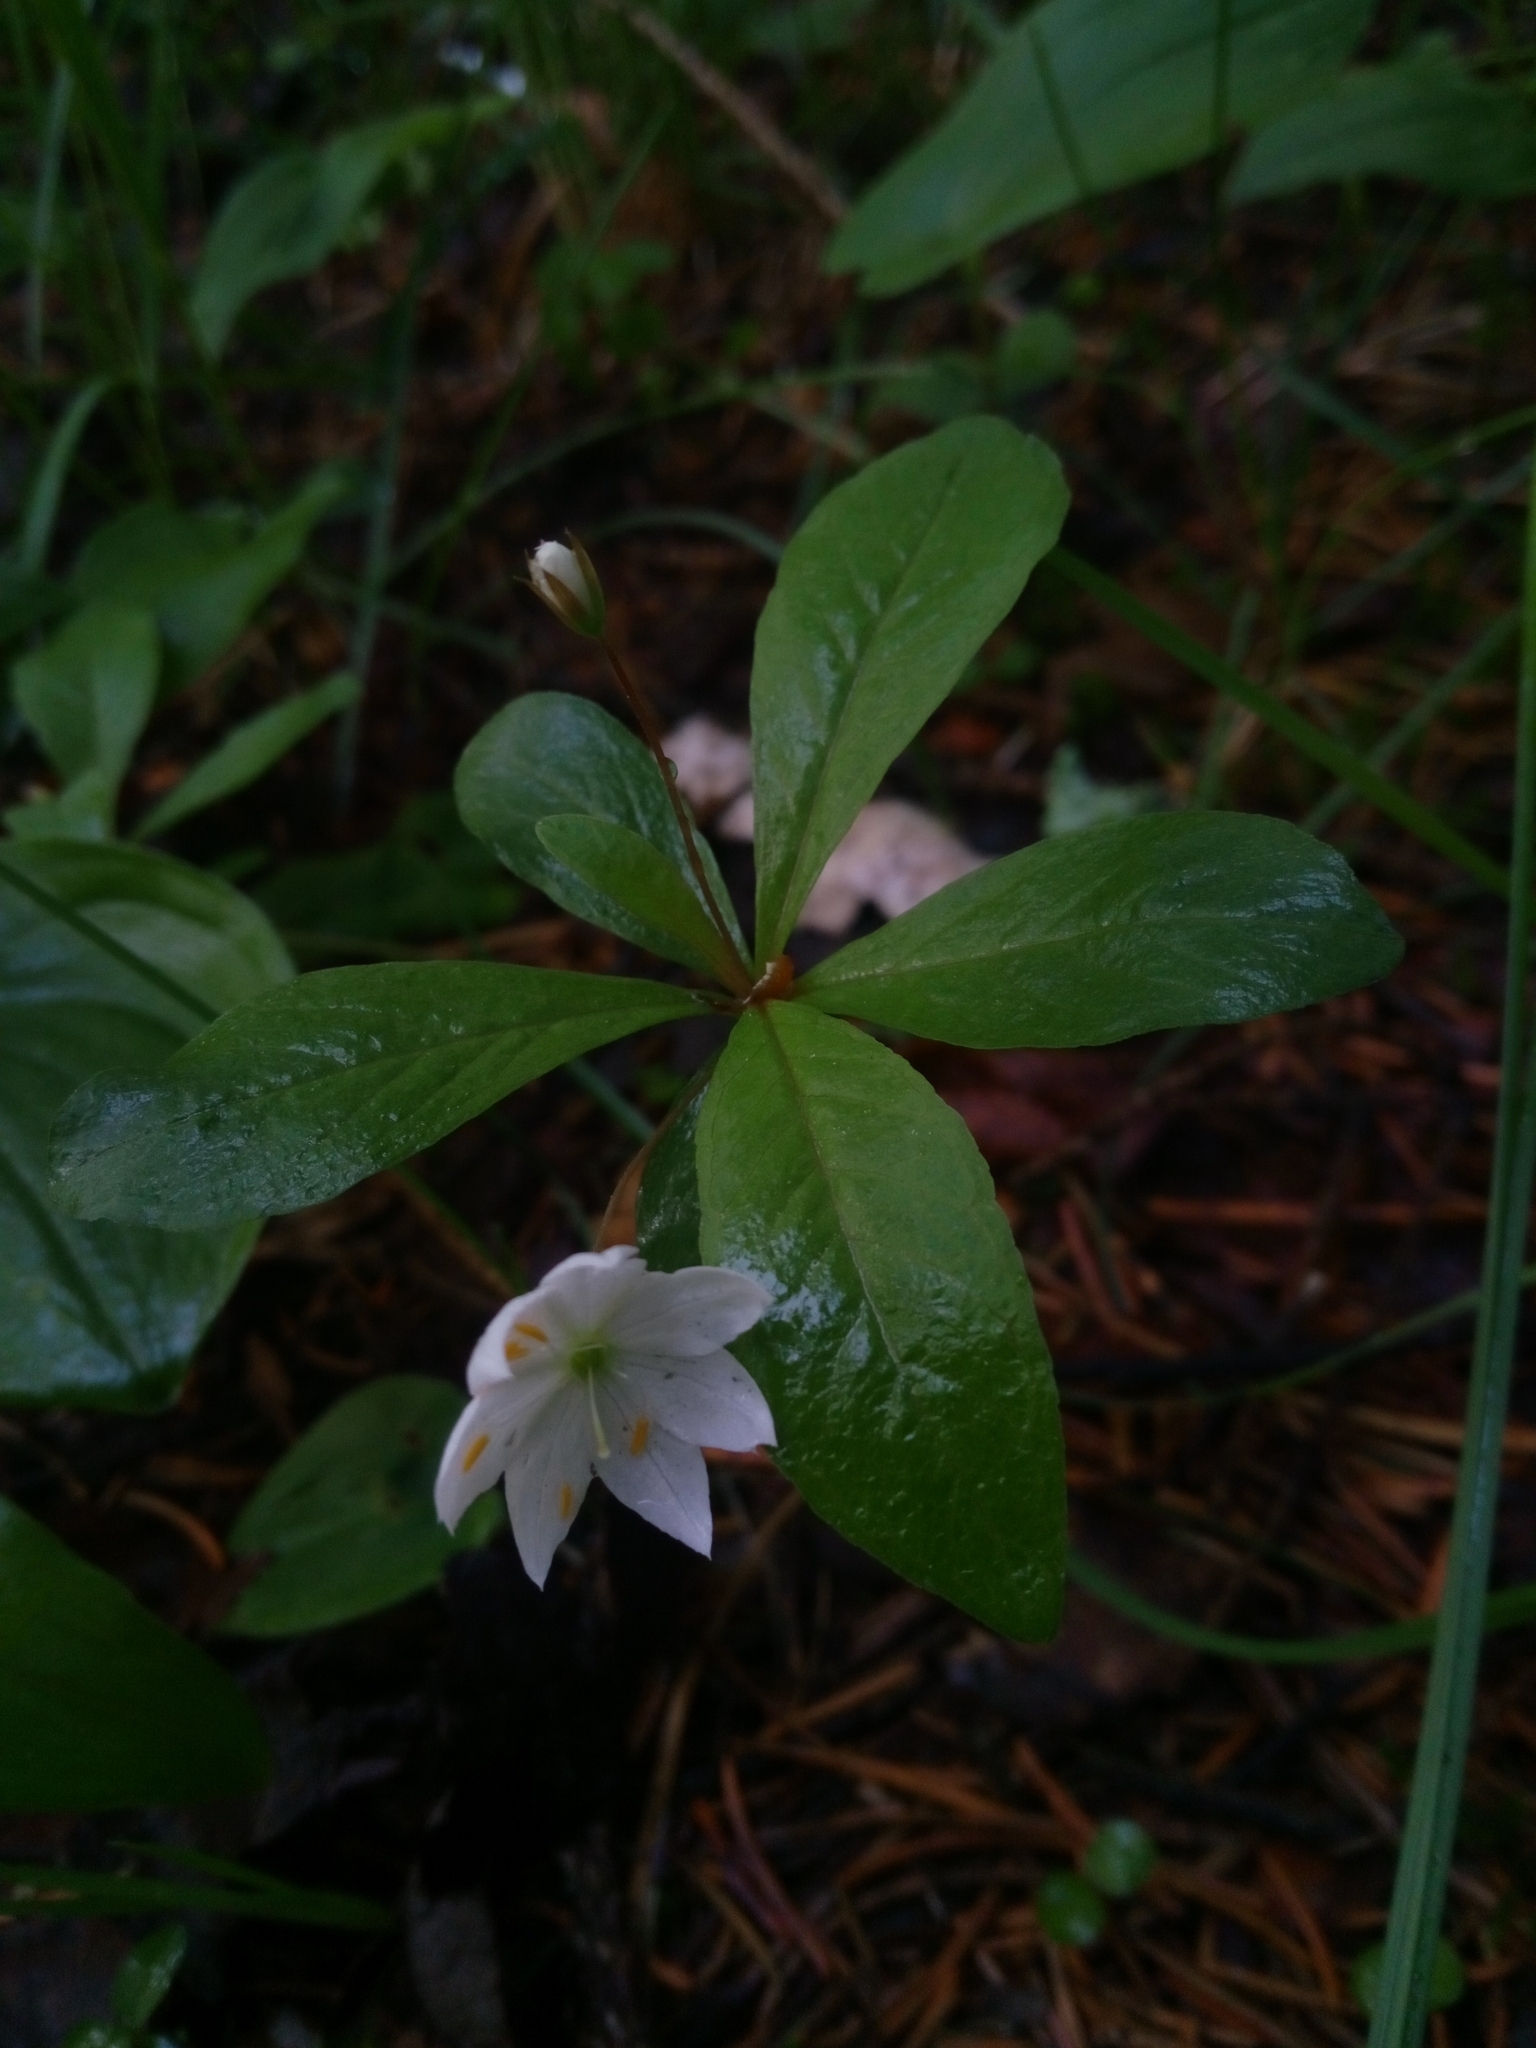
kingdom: Plantae
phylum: Tracheophyta
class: Magnoliopsida
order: Ericales
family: Primulaceae
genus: Lysimachia
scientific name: Lysimachia europaea
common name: Arctic starflower
